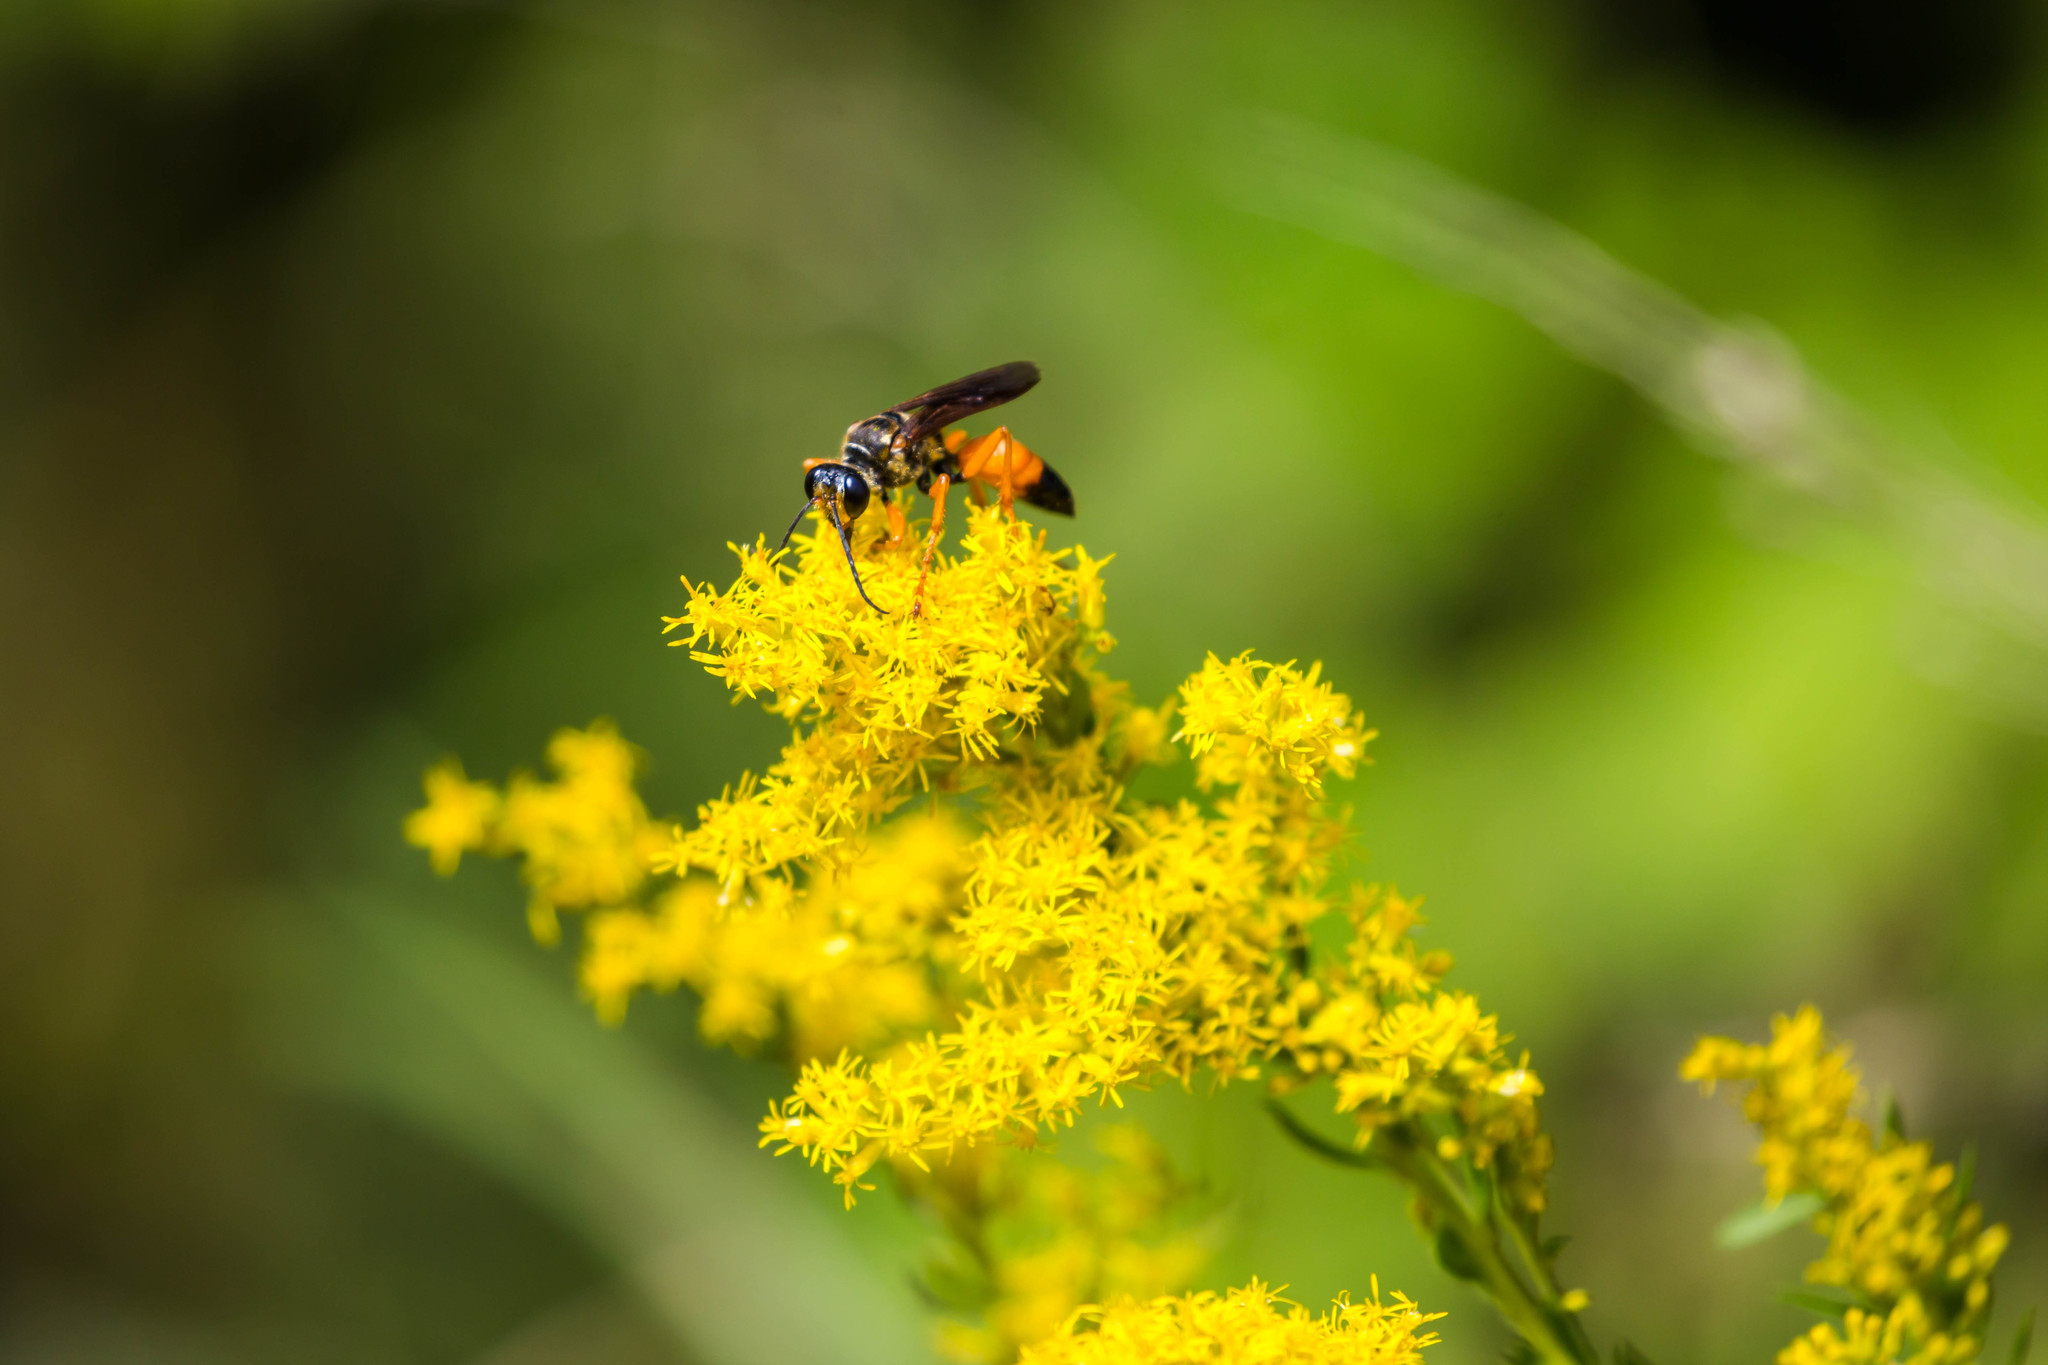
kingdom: Animalia
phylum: Arthropoda
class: Insecta
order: Hymenoptera
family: Sphecidae
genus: Sphex
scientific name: Sphex ichneumoneus
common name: Great golden digger wasp
